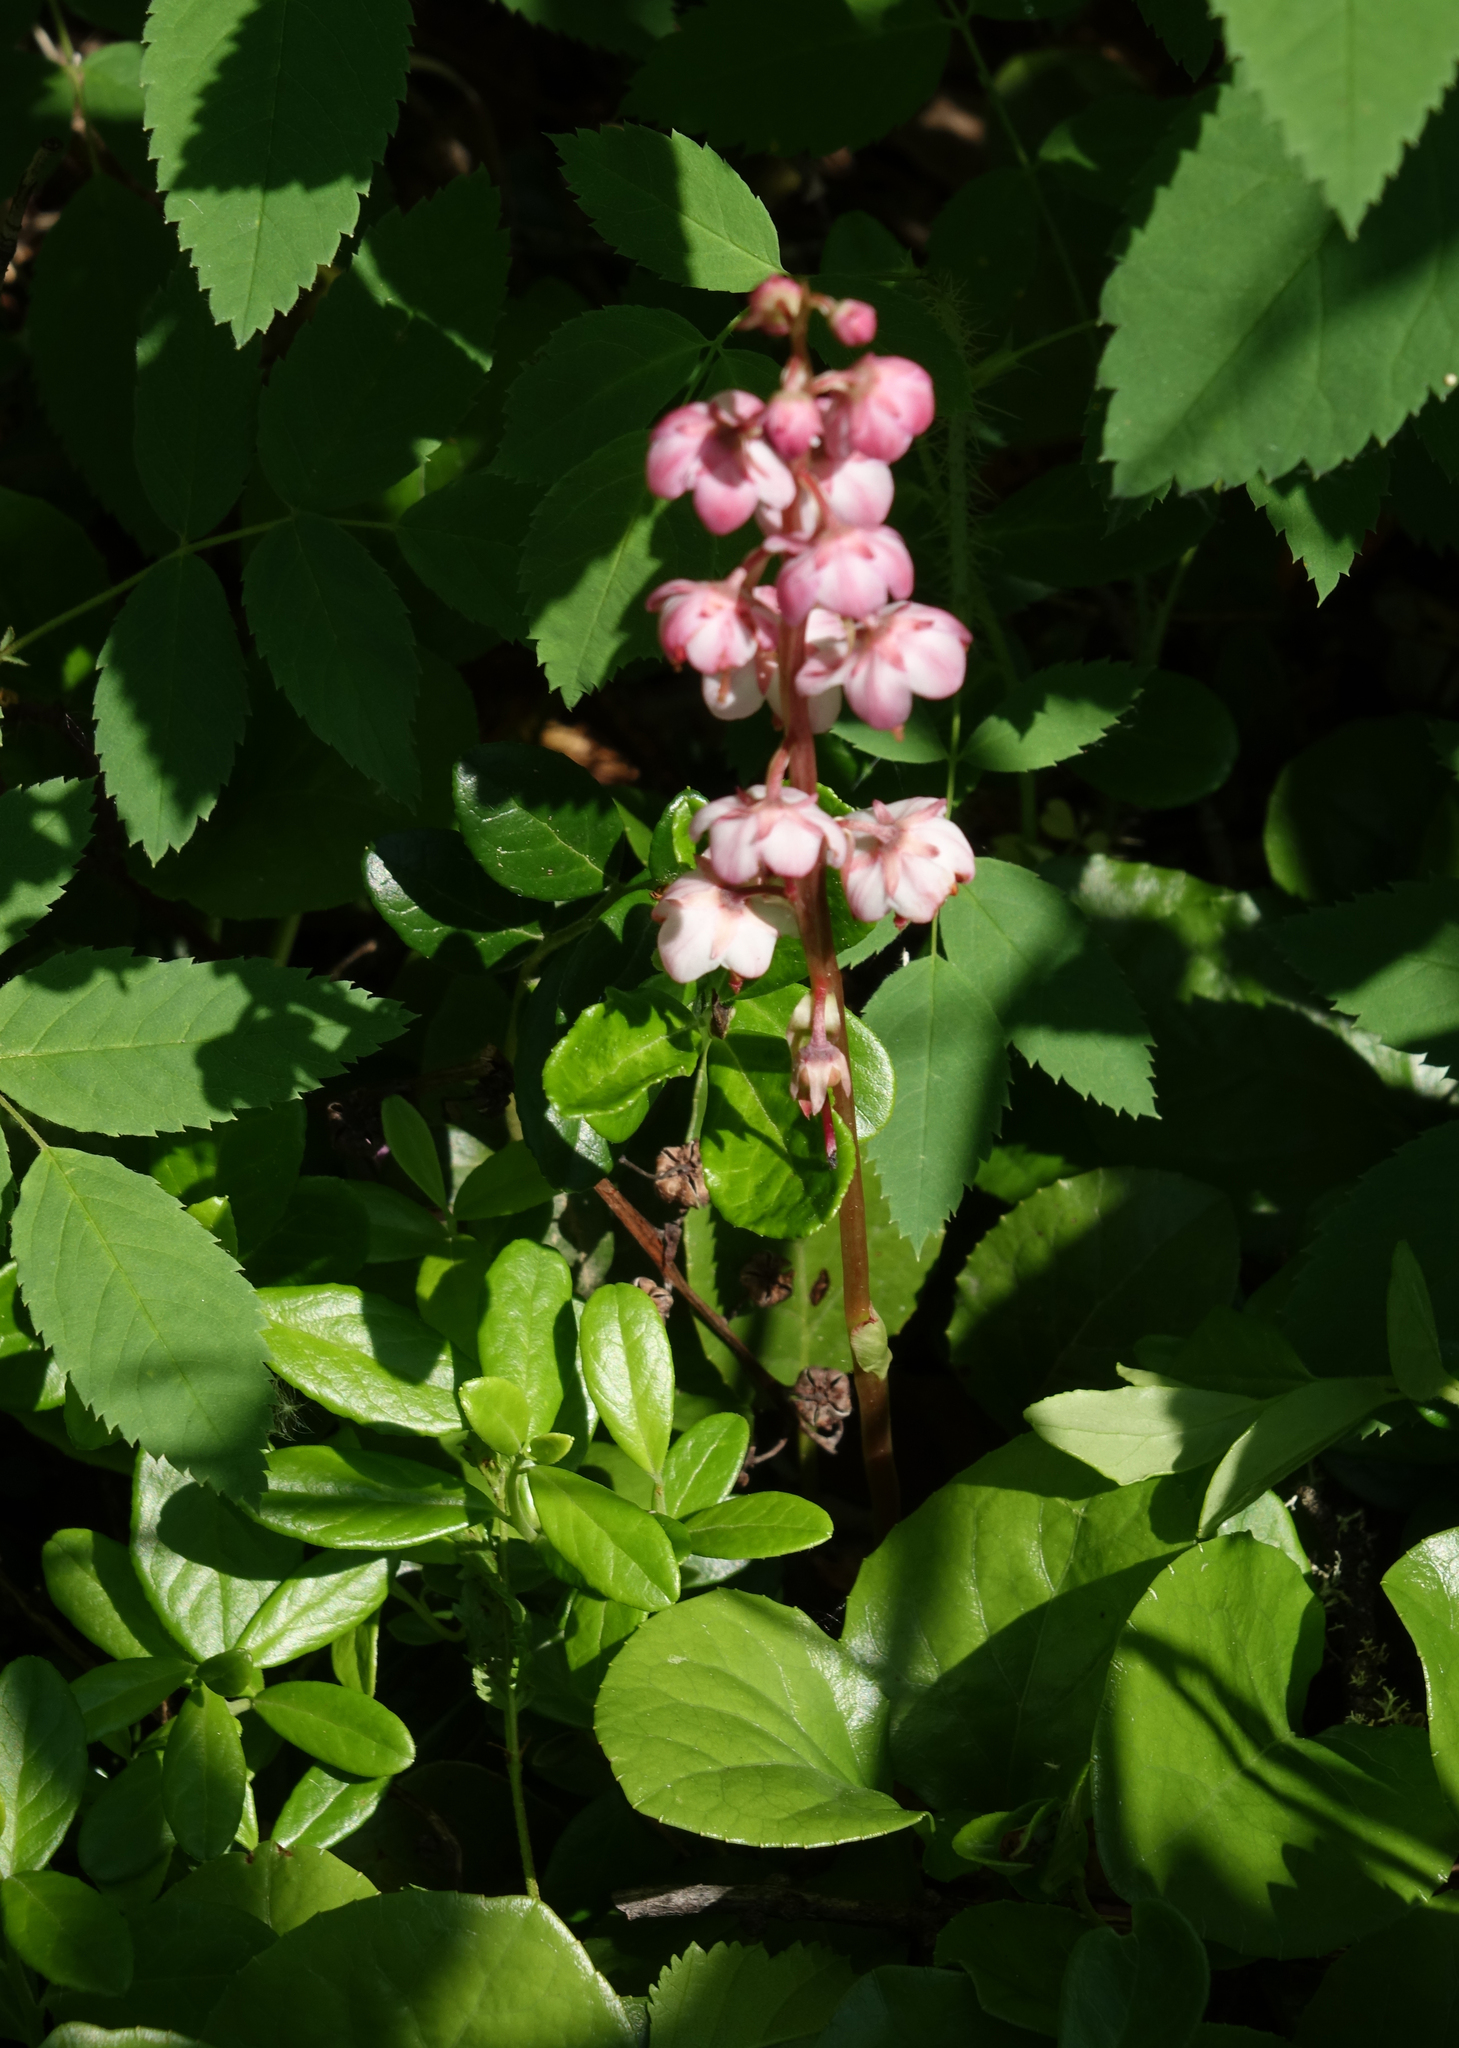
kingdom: Plantae
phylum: Tracheophyta
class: Magnoliopsida
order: Ericales
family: Ericaceae
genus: Pyrola
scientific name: Pyrola asarifolia
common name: Bog wintergreen
